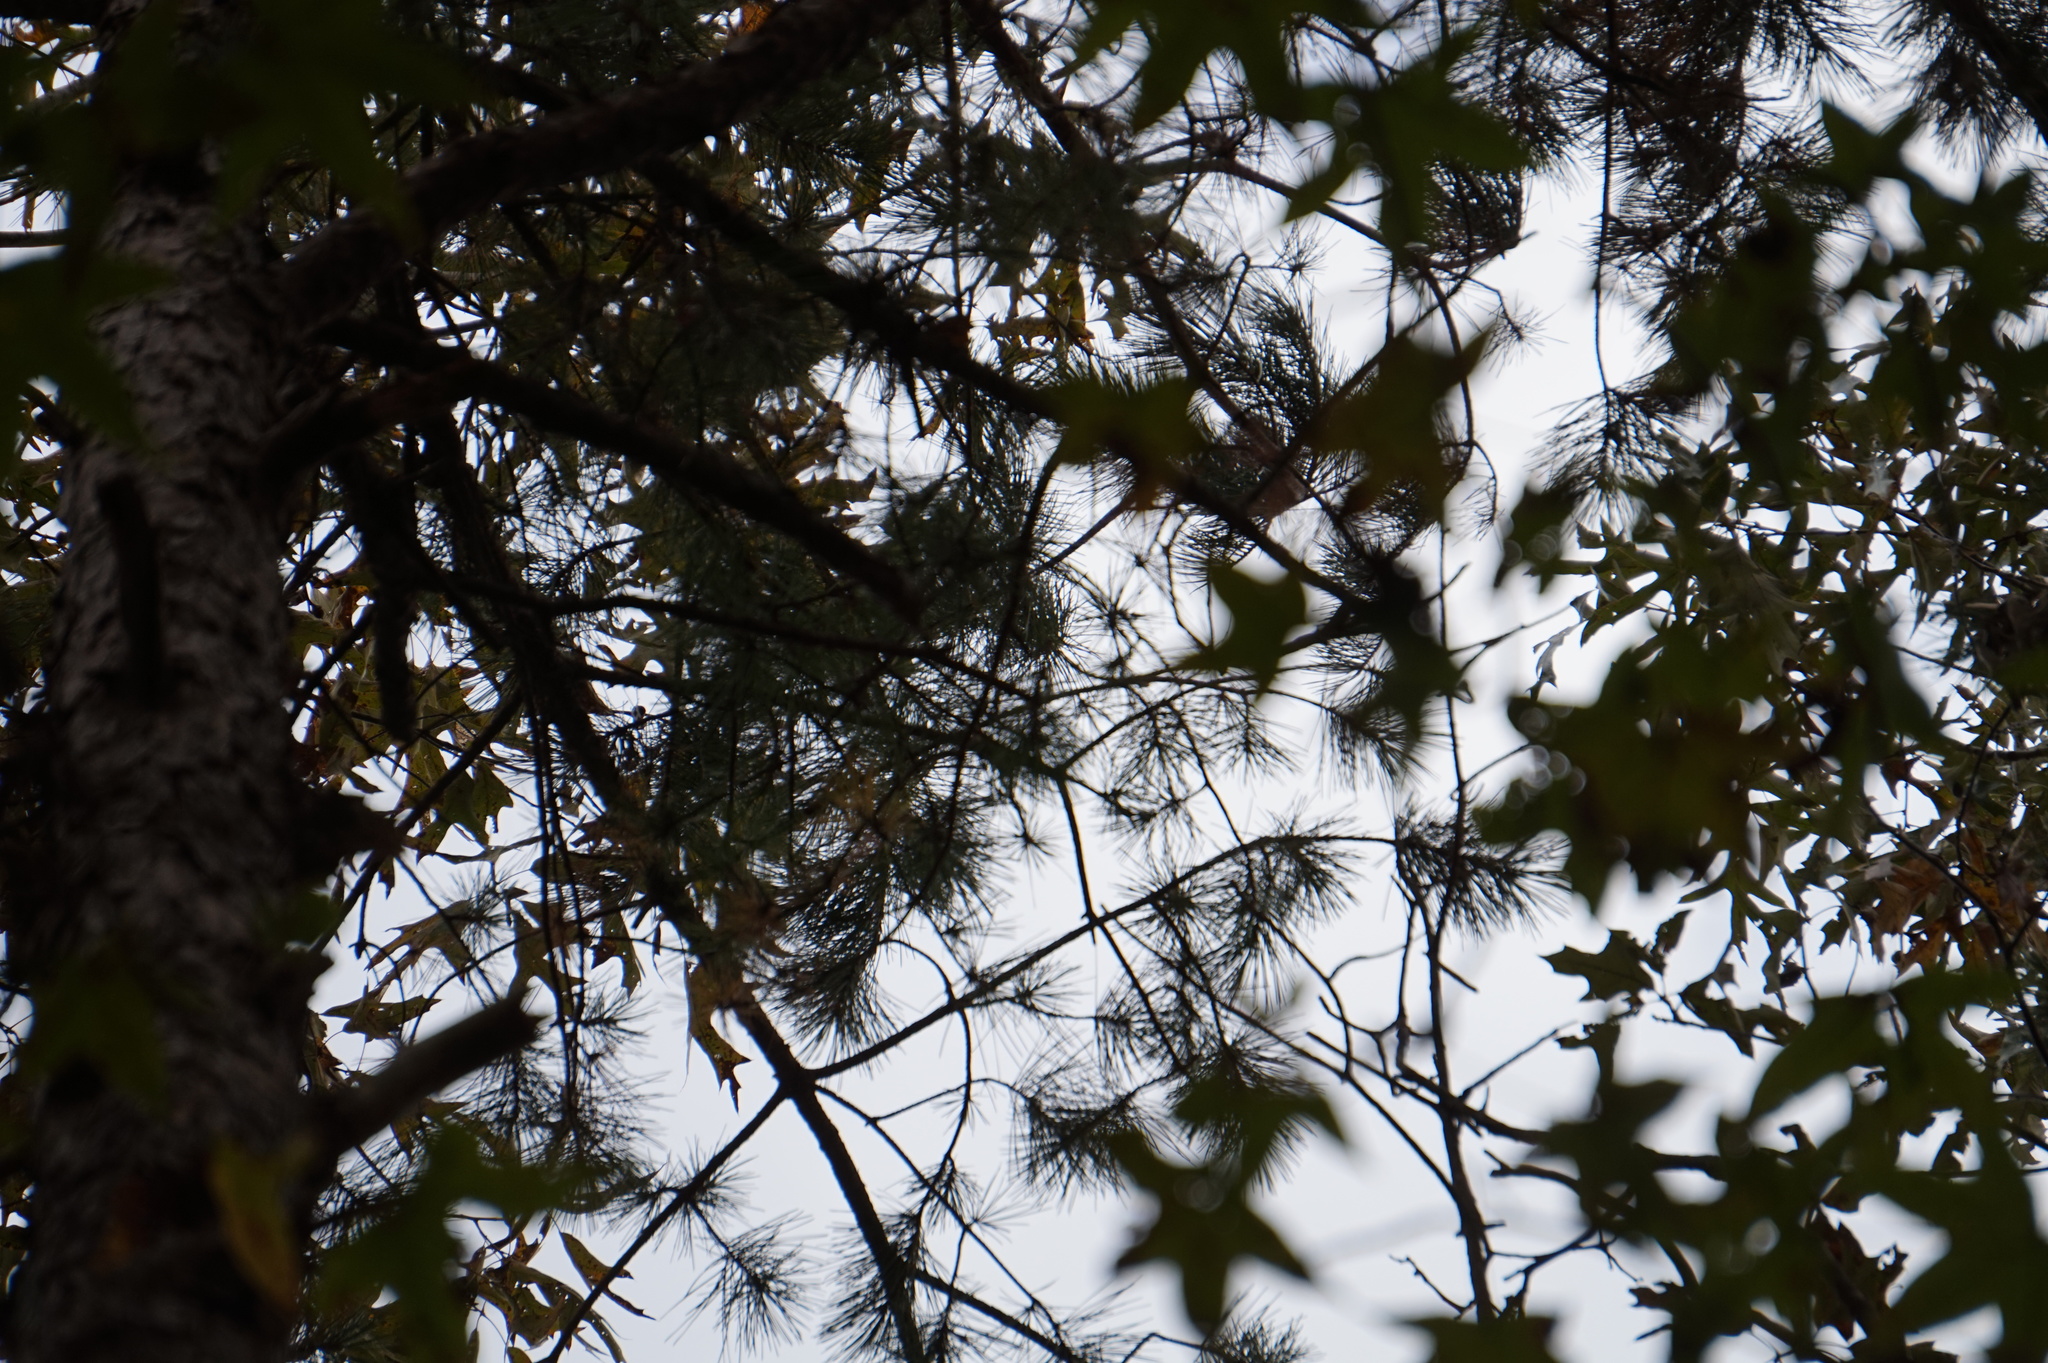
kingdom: Plantae
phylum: Tracheophyta
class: Pinopsida
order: Pinales
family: Pinaceae
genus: Pinus
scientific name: Pinus echinata
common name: Shortleaf pine
